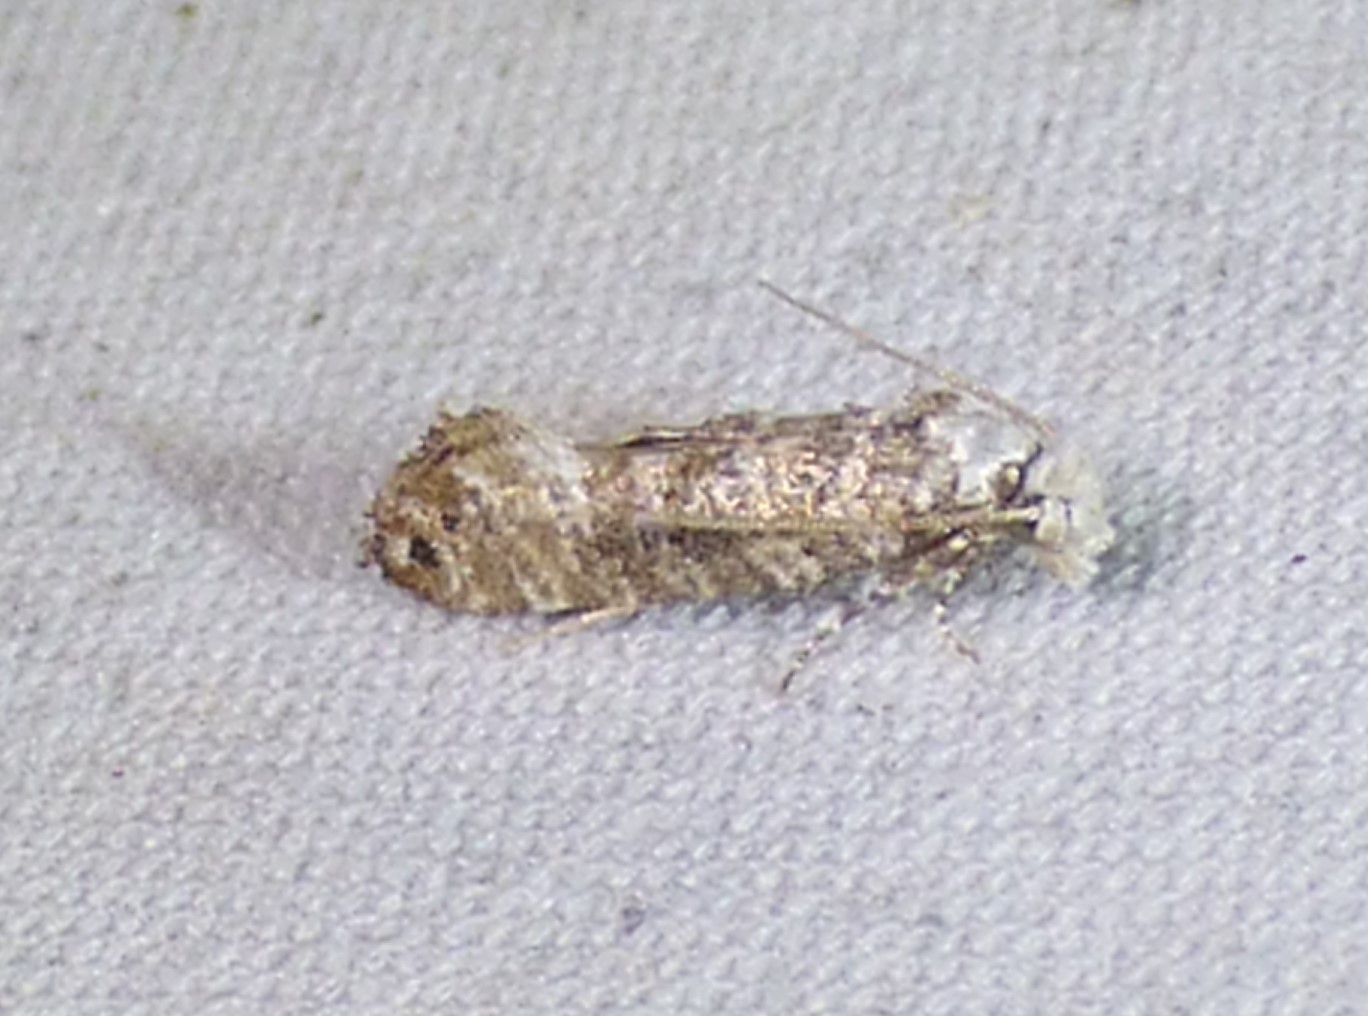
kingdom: Animalia
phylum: Arthropoda
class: Insecta
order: Lepidoptera
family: Tineidae
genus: Xylesthia
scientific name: Xylesthia pruniramiella
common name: Clemens' bark moth
